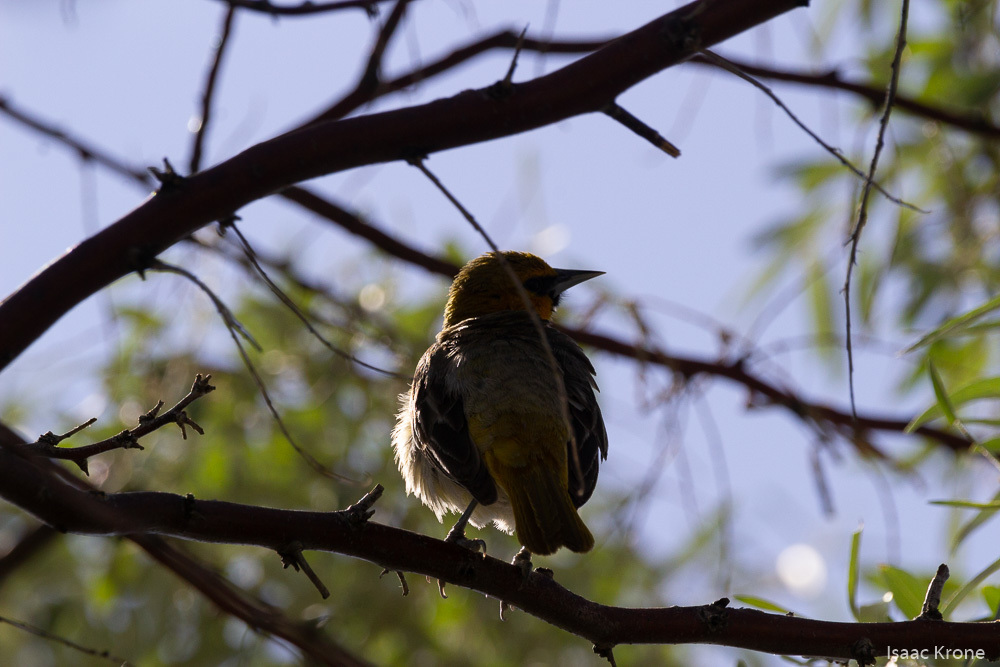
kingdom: Animalia
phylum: Chordata
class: Aves
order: Passeriformes
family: Icteridae
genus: Icterus
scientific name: Icterus bullockii
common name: Bullock's oriole
